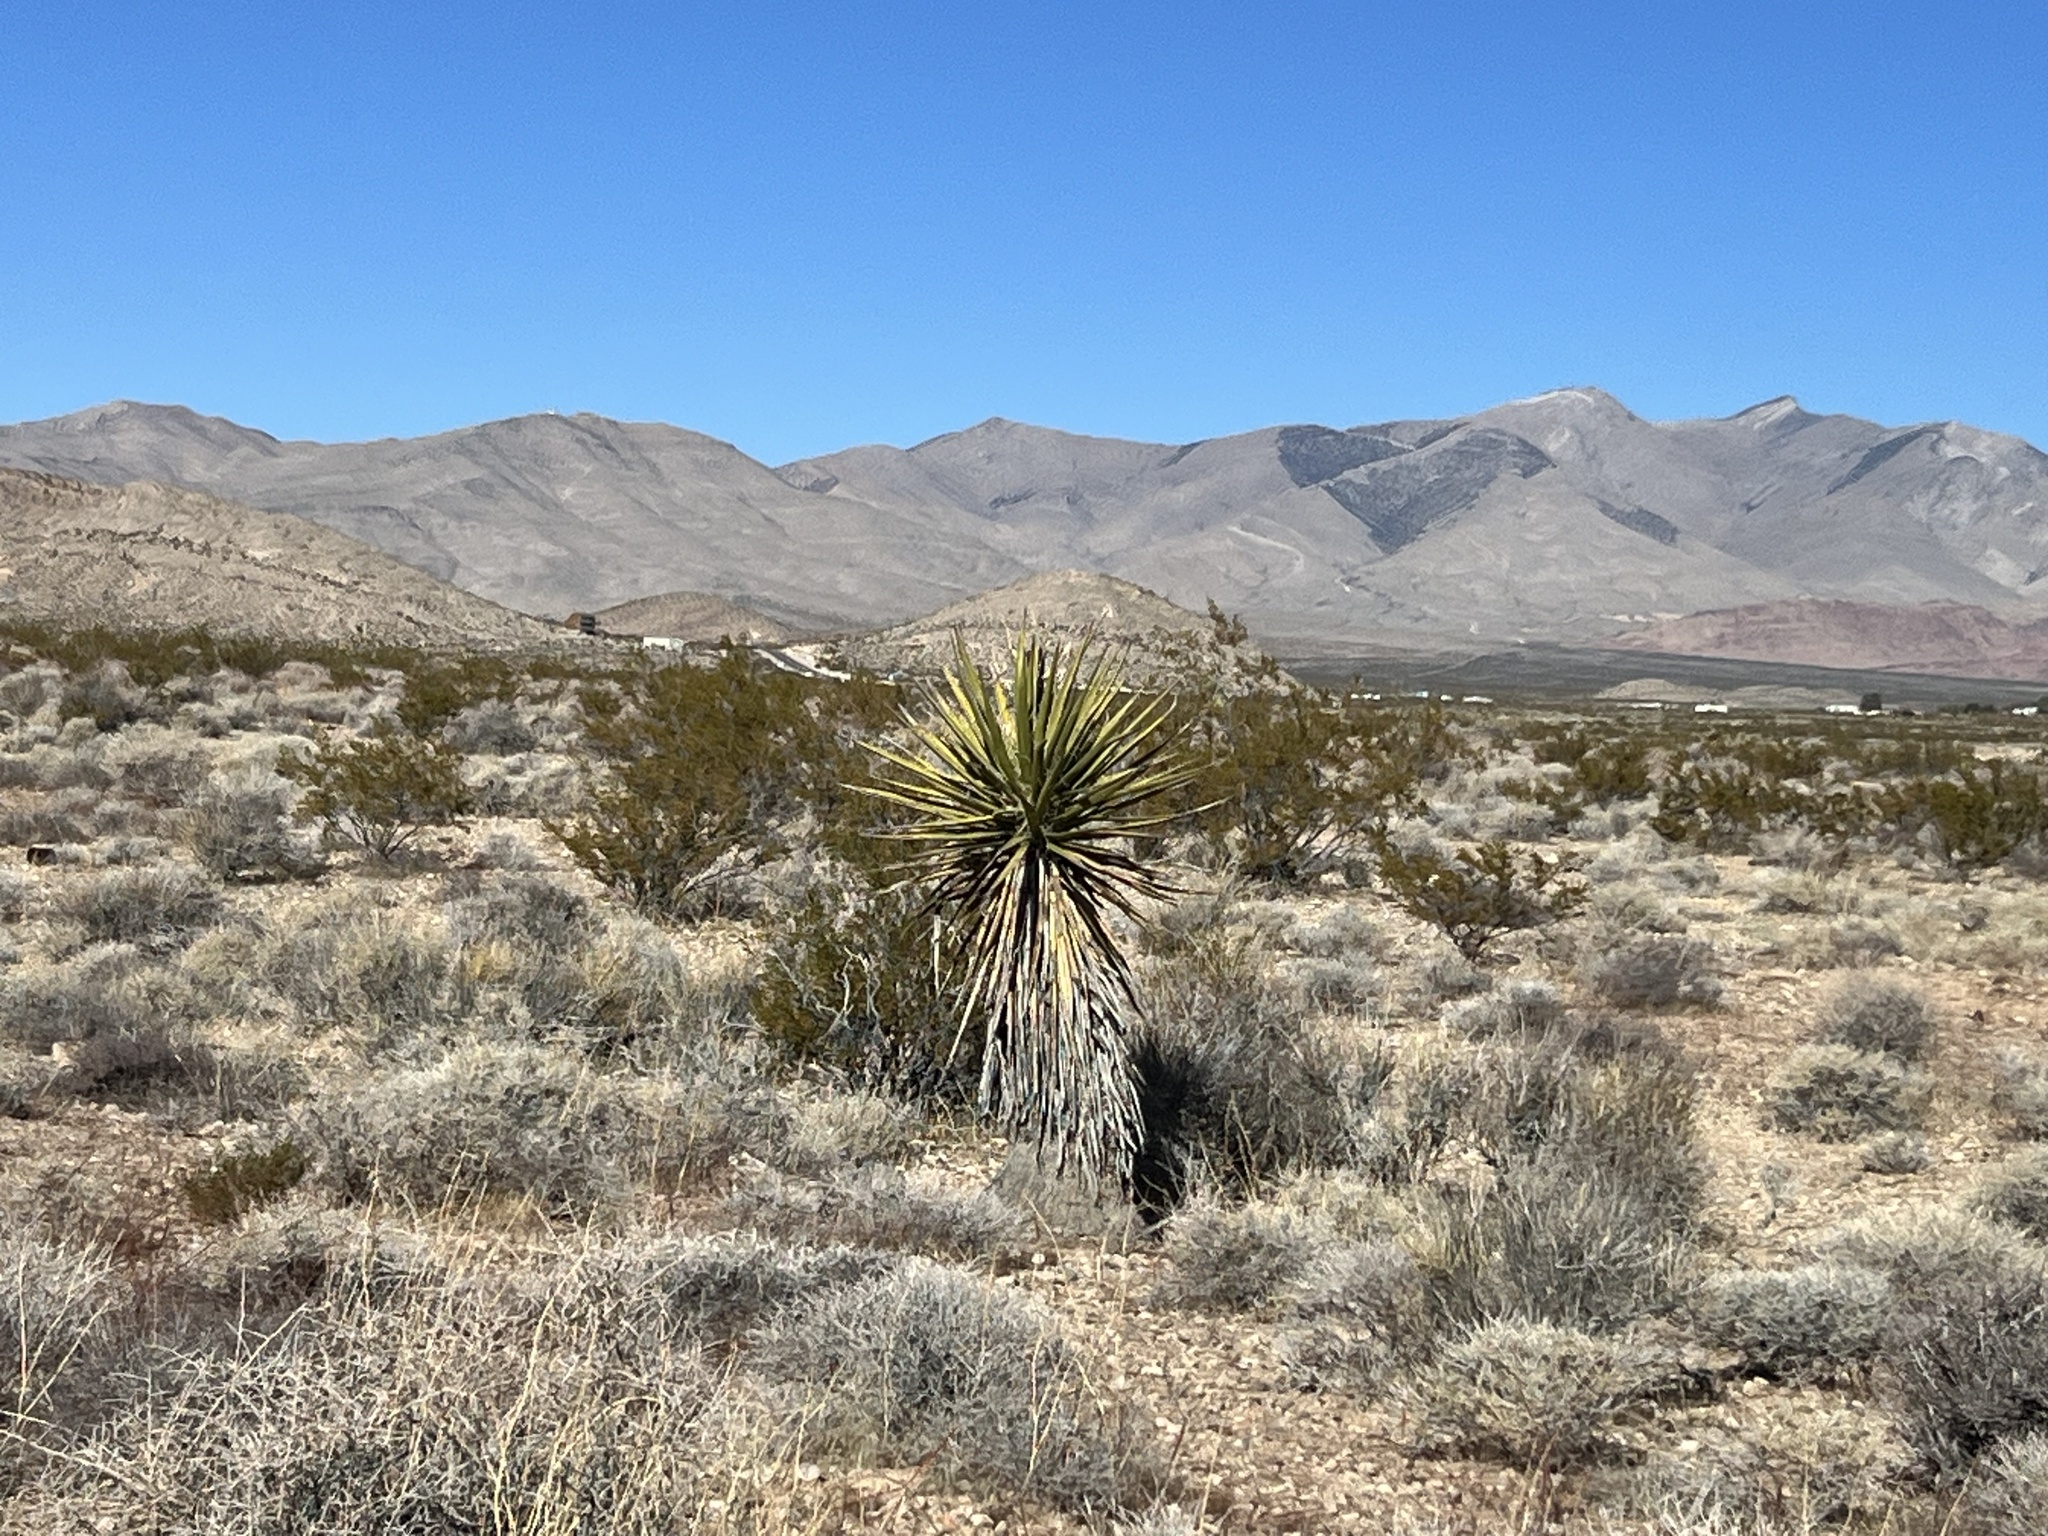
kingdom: Plantae
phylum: Tracheophyta
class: Liliopsida
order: Asparagales
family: Asparagaceae
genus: Yucca
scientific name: Yucca schidigera
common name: Mojave yucca
